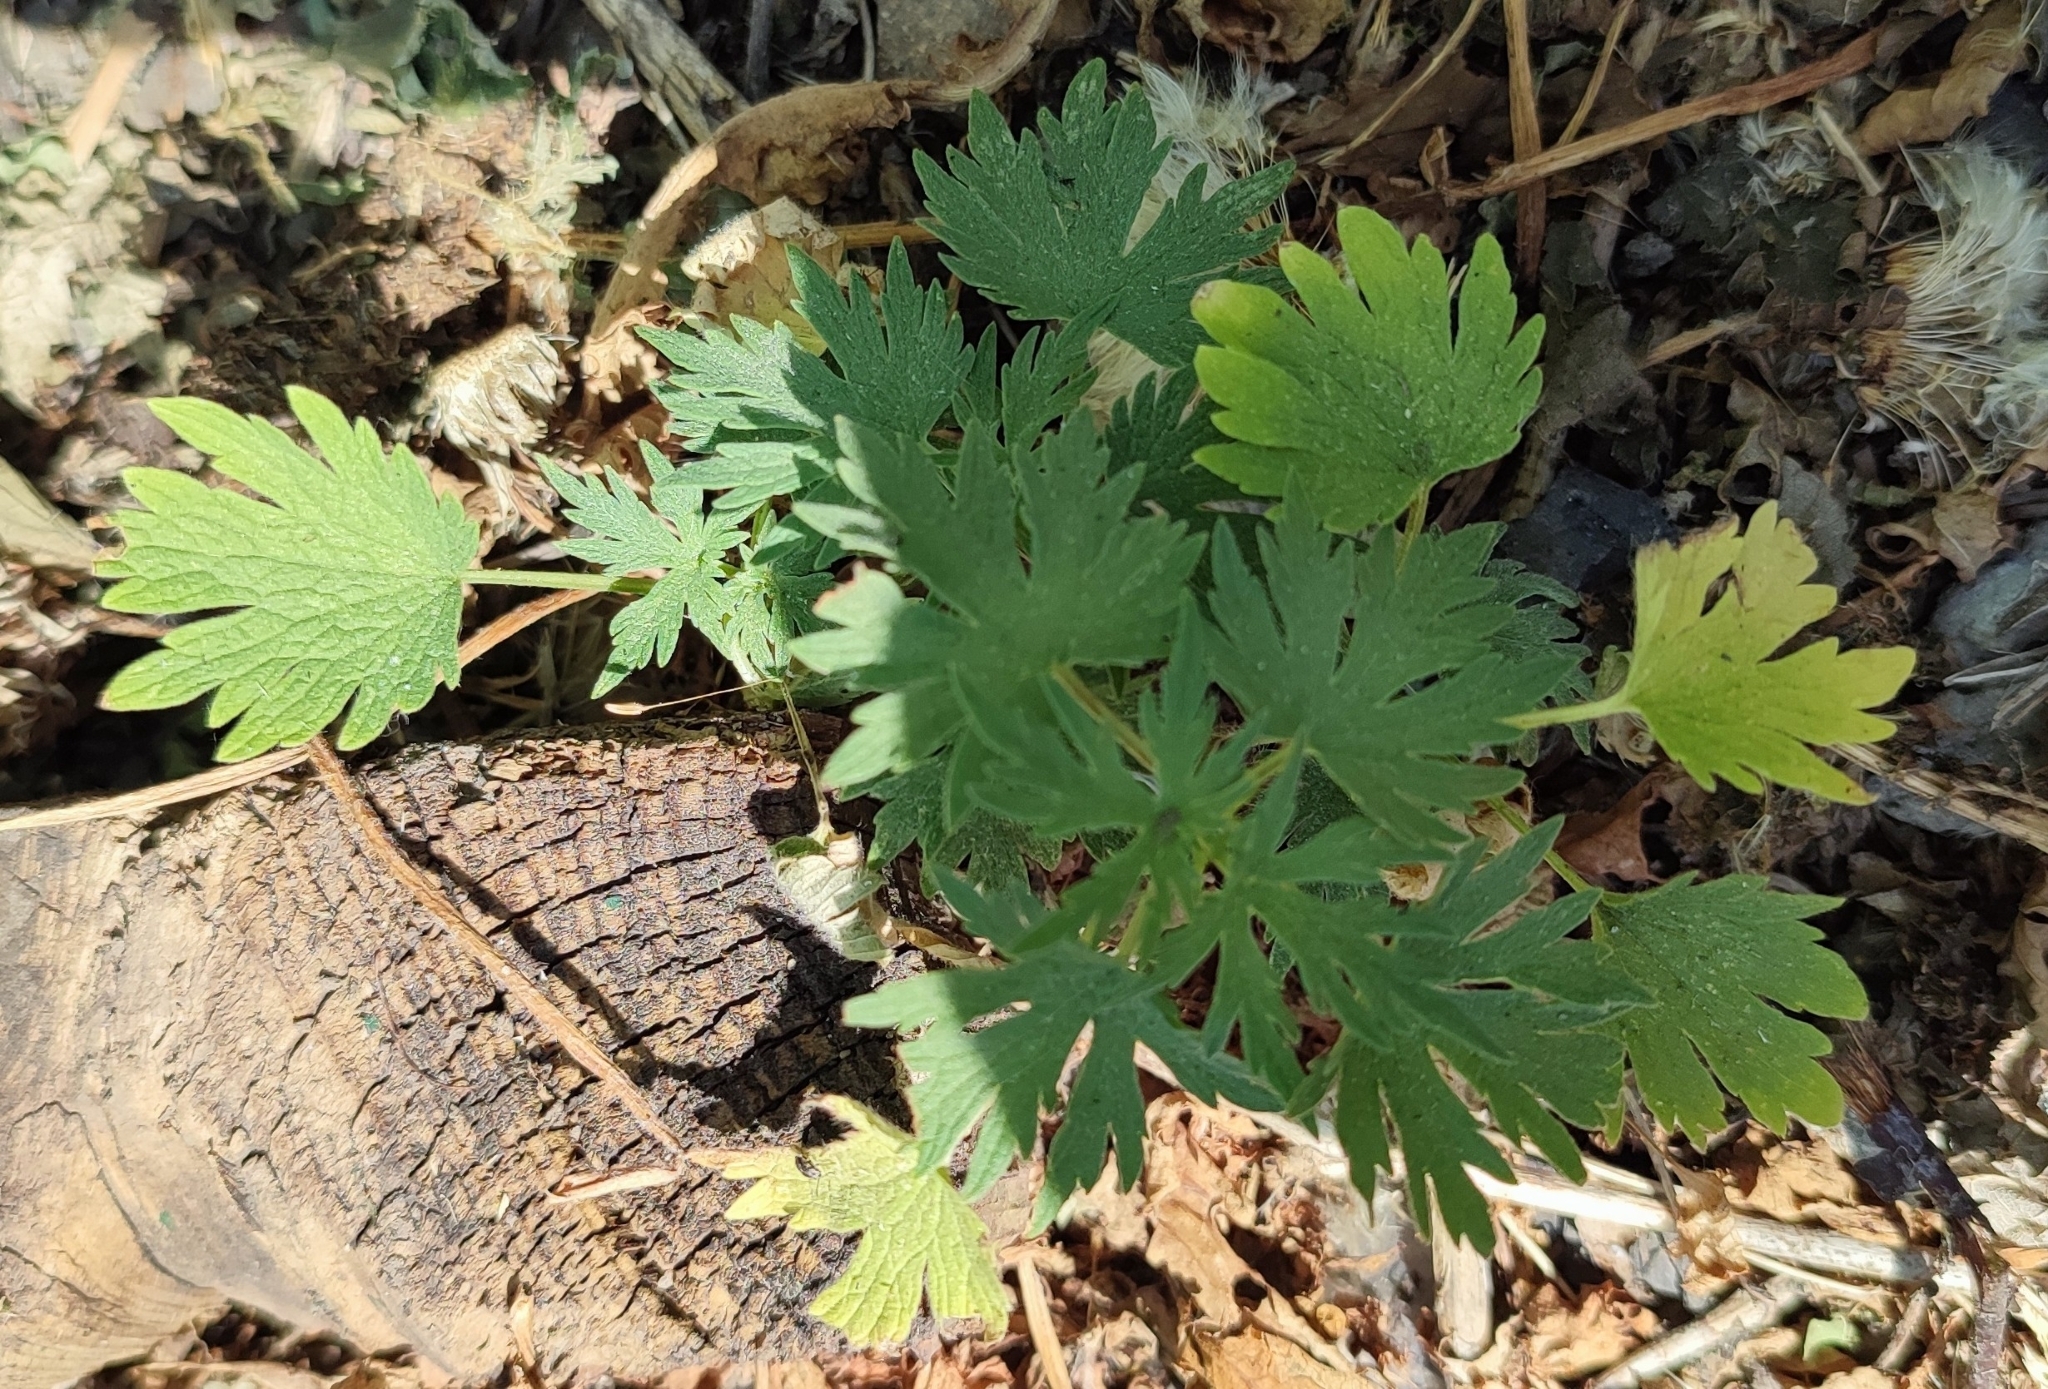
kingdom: Plantae
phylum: Tracheophyta
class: Magnoliopsida
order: Lamiales
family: Lamiaceae
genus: Leonurus
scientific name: Leonurus quinquelobatus
